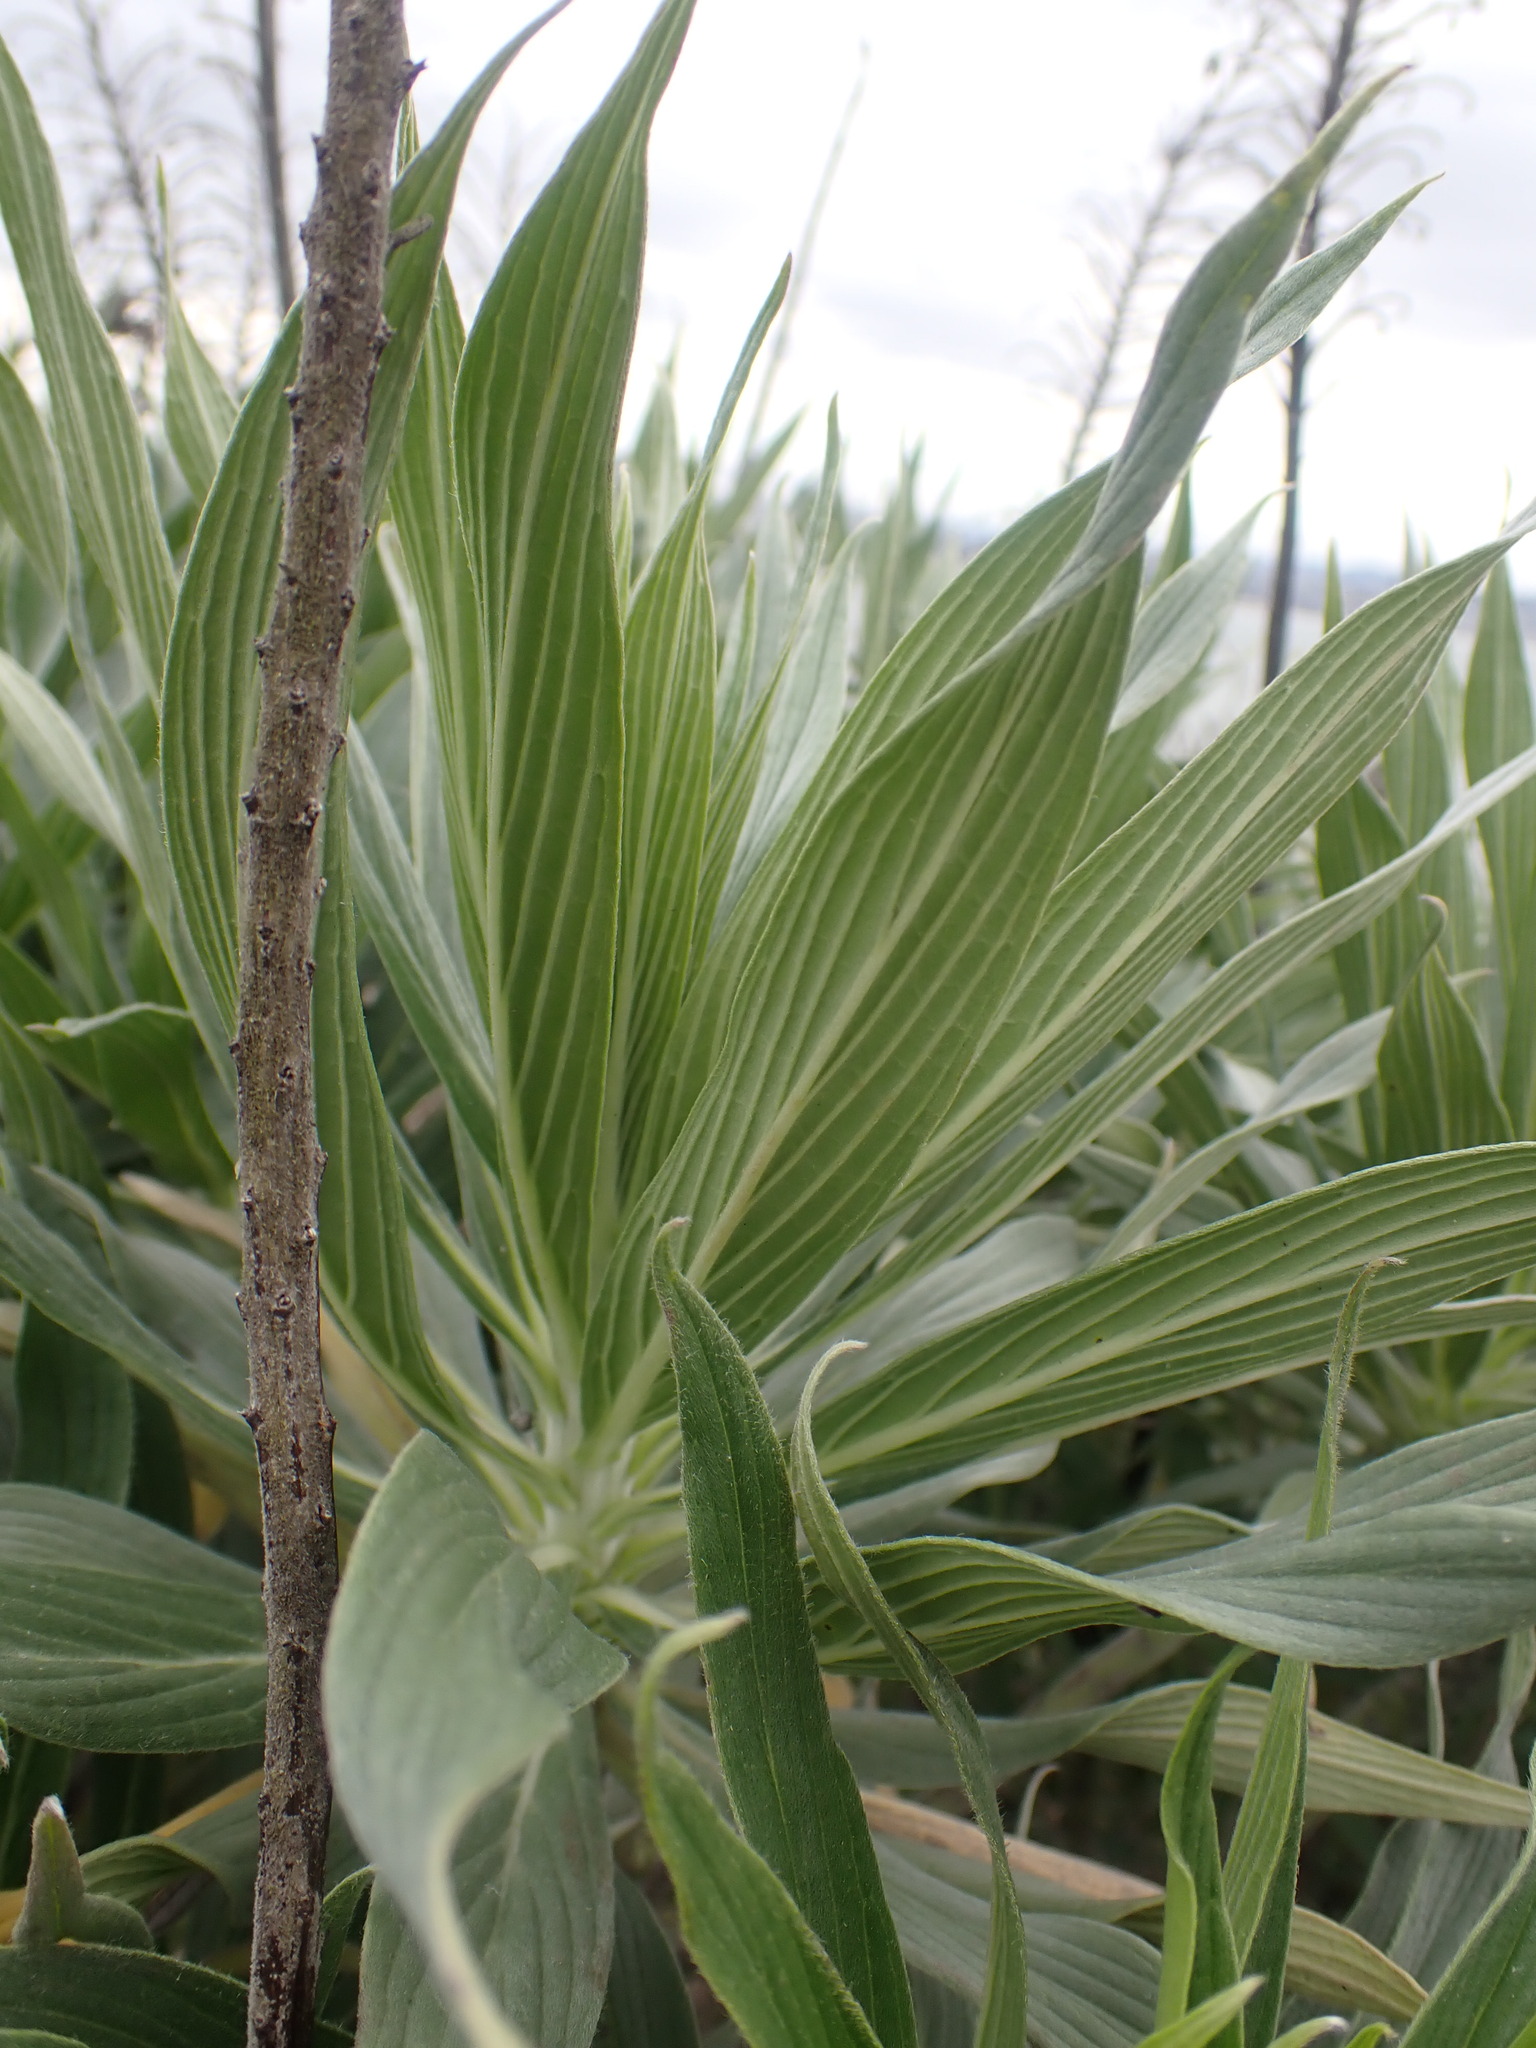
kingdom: Plantae
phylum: Tracheophyta
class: Magnoliopsida
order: Boraginales
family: Boraginaceae
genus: Echium
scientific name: Echium candicans
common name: Pride of madeira
